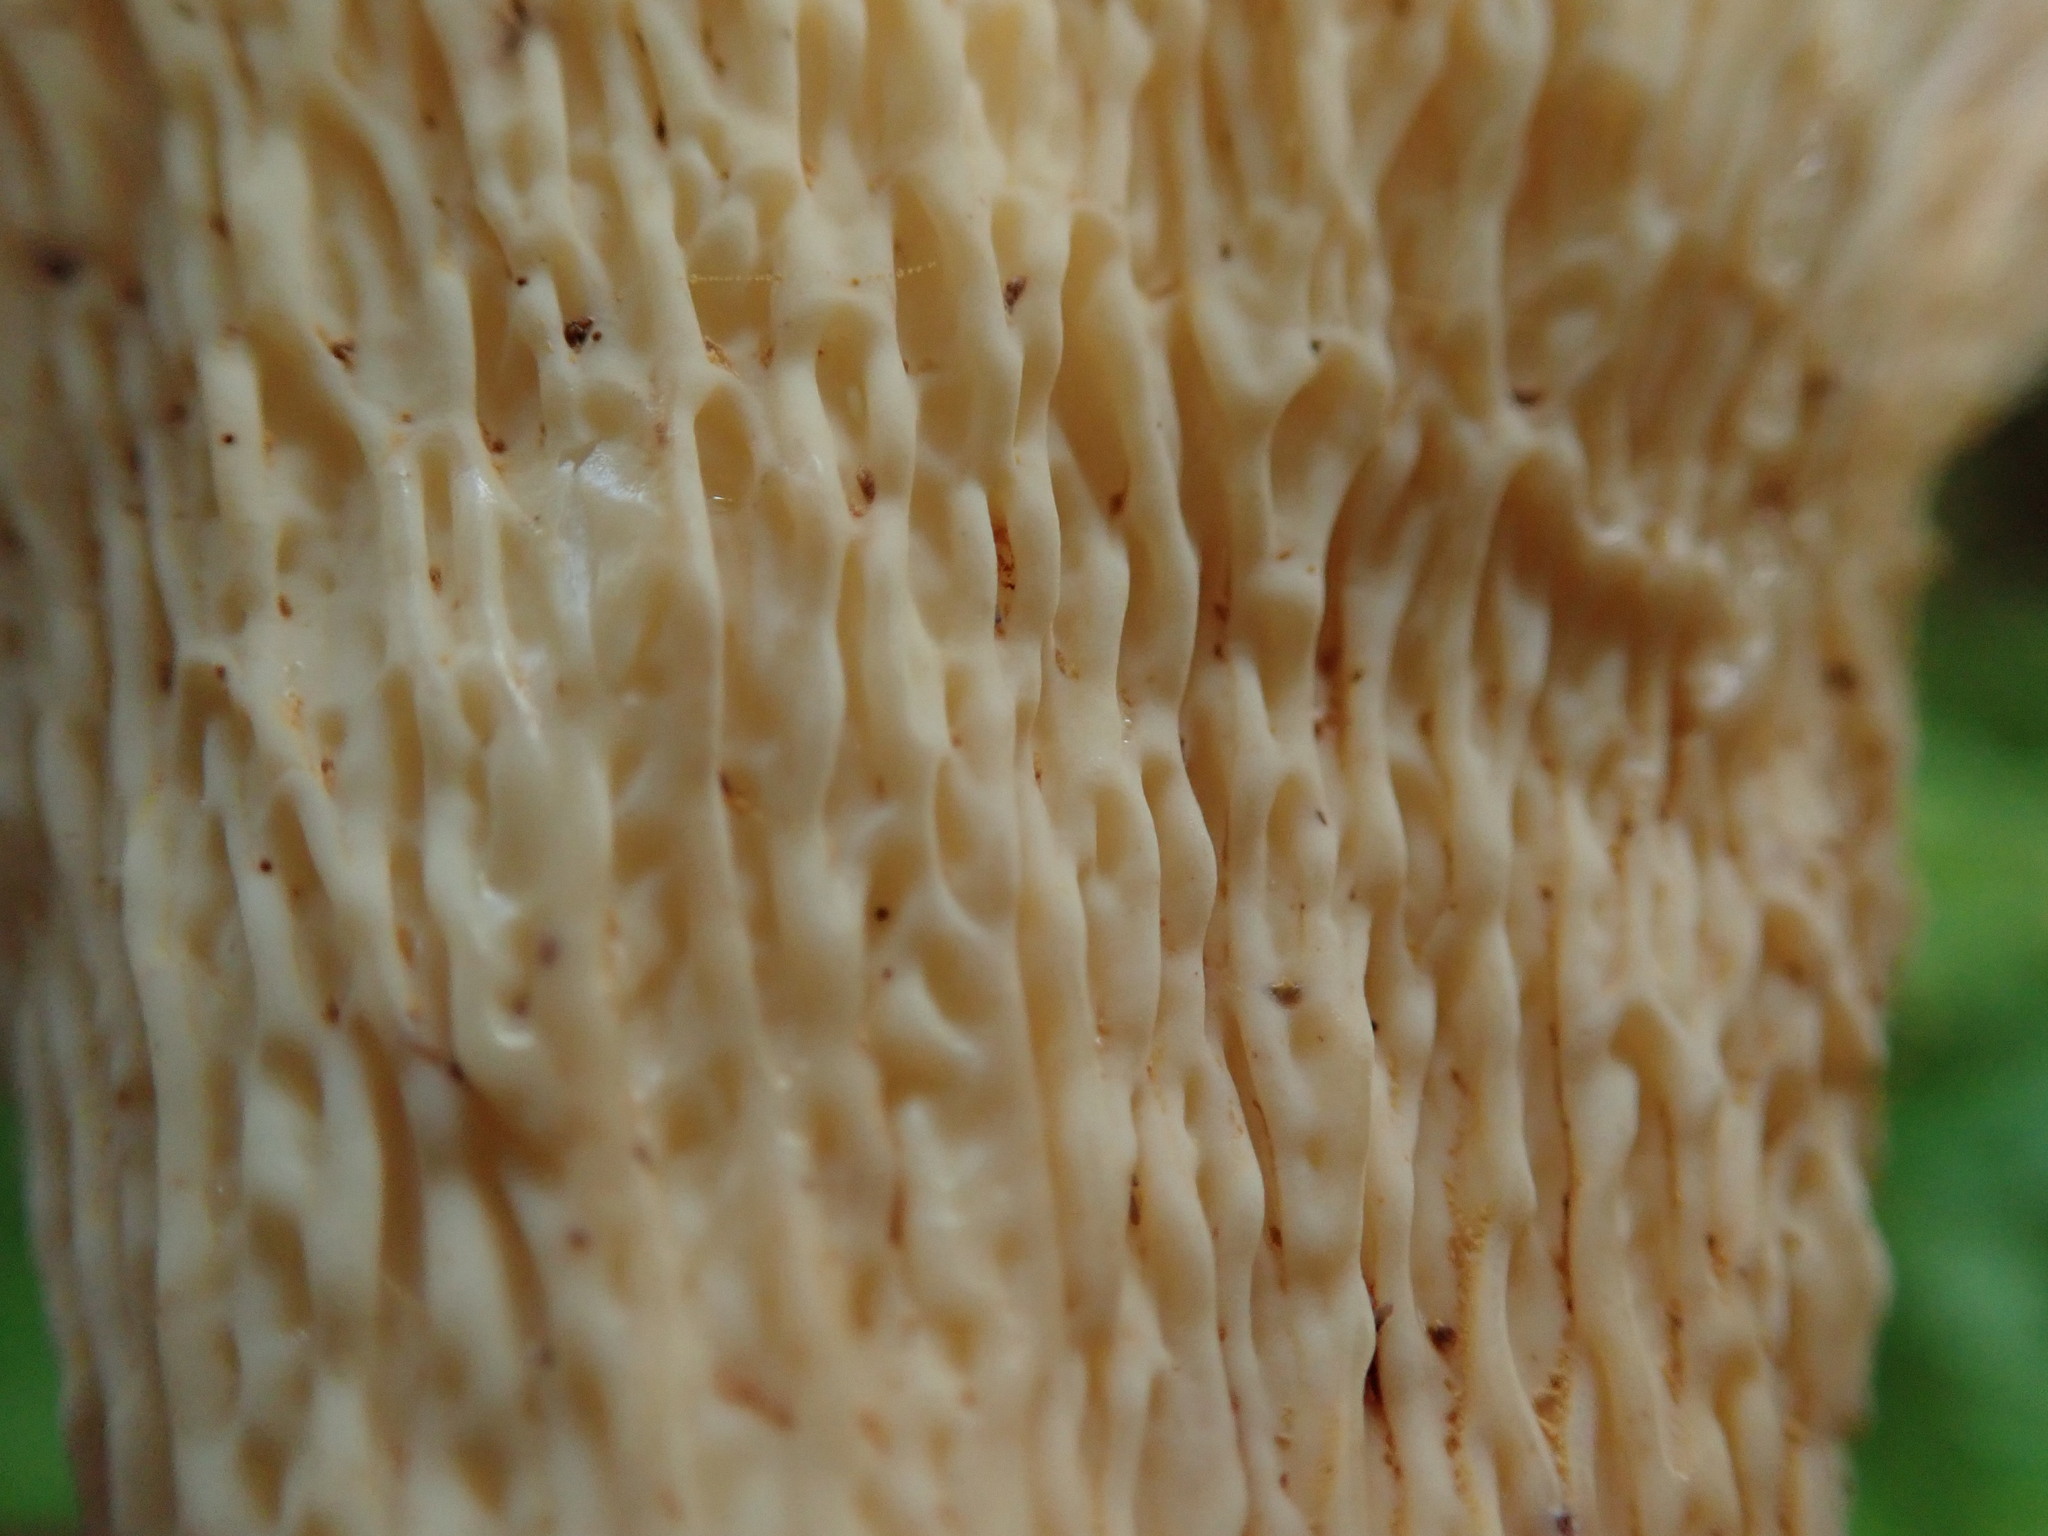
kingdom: Fungi
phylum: Basidiomycota
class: Agaricomycetes
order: Gomphales
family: Gomphaceae
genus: Turbinellus
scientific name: Turbinellus floccosus
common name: Scaly chanterelle
